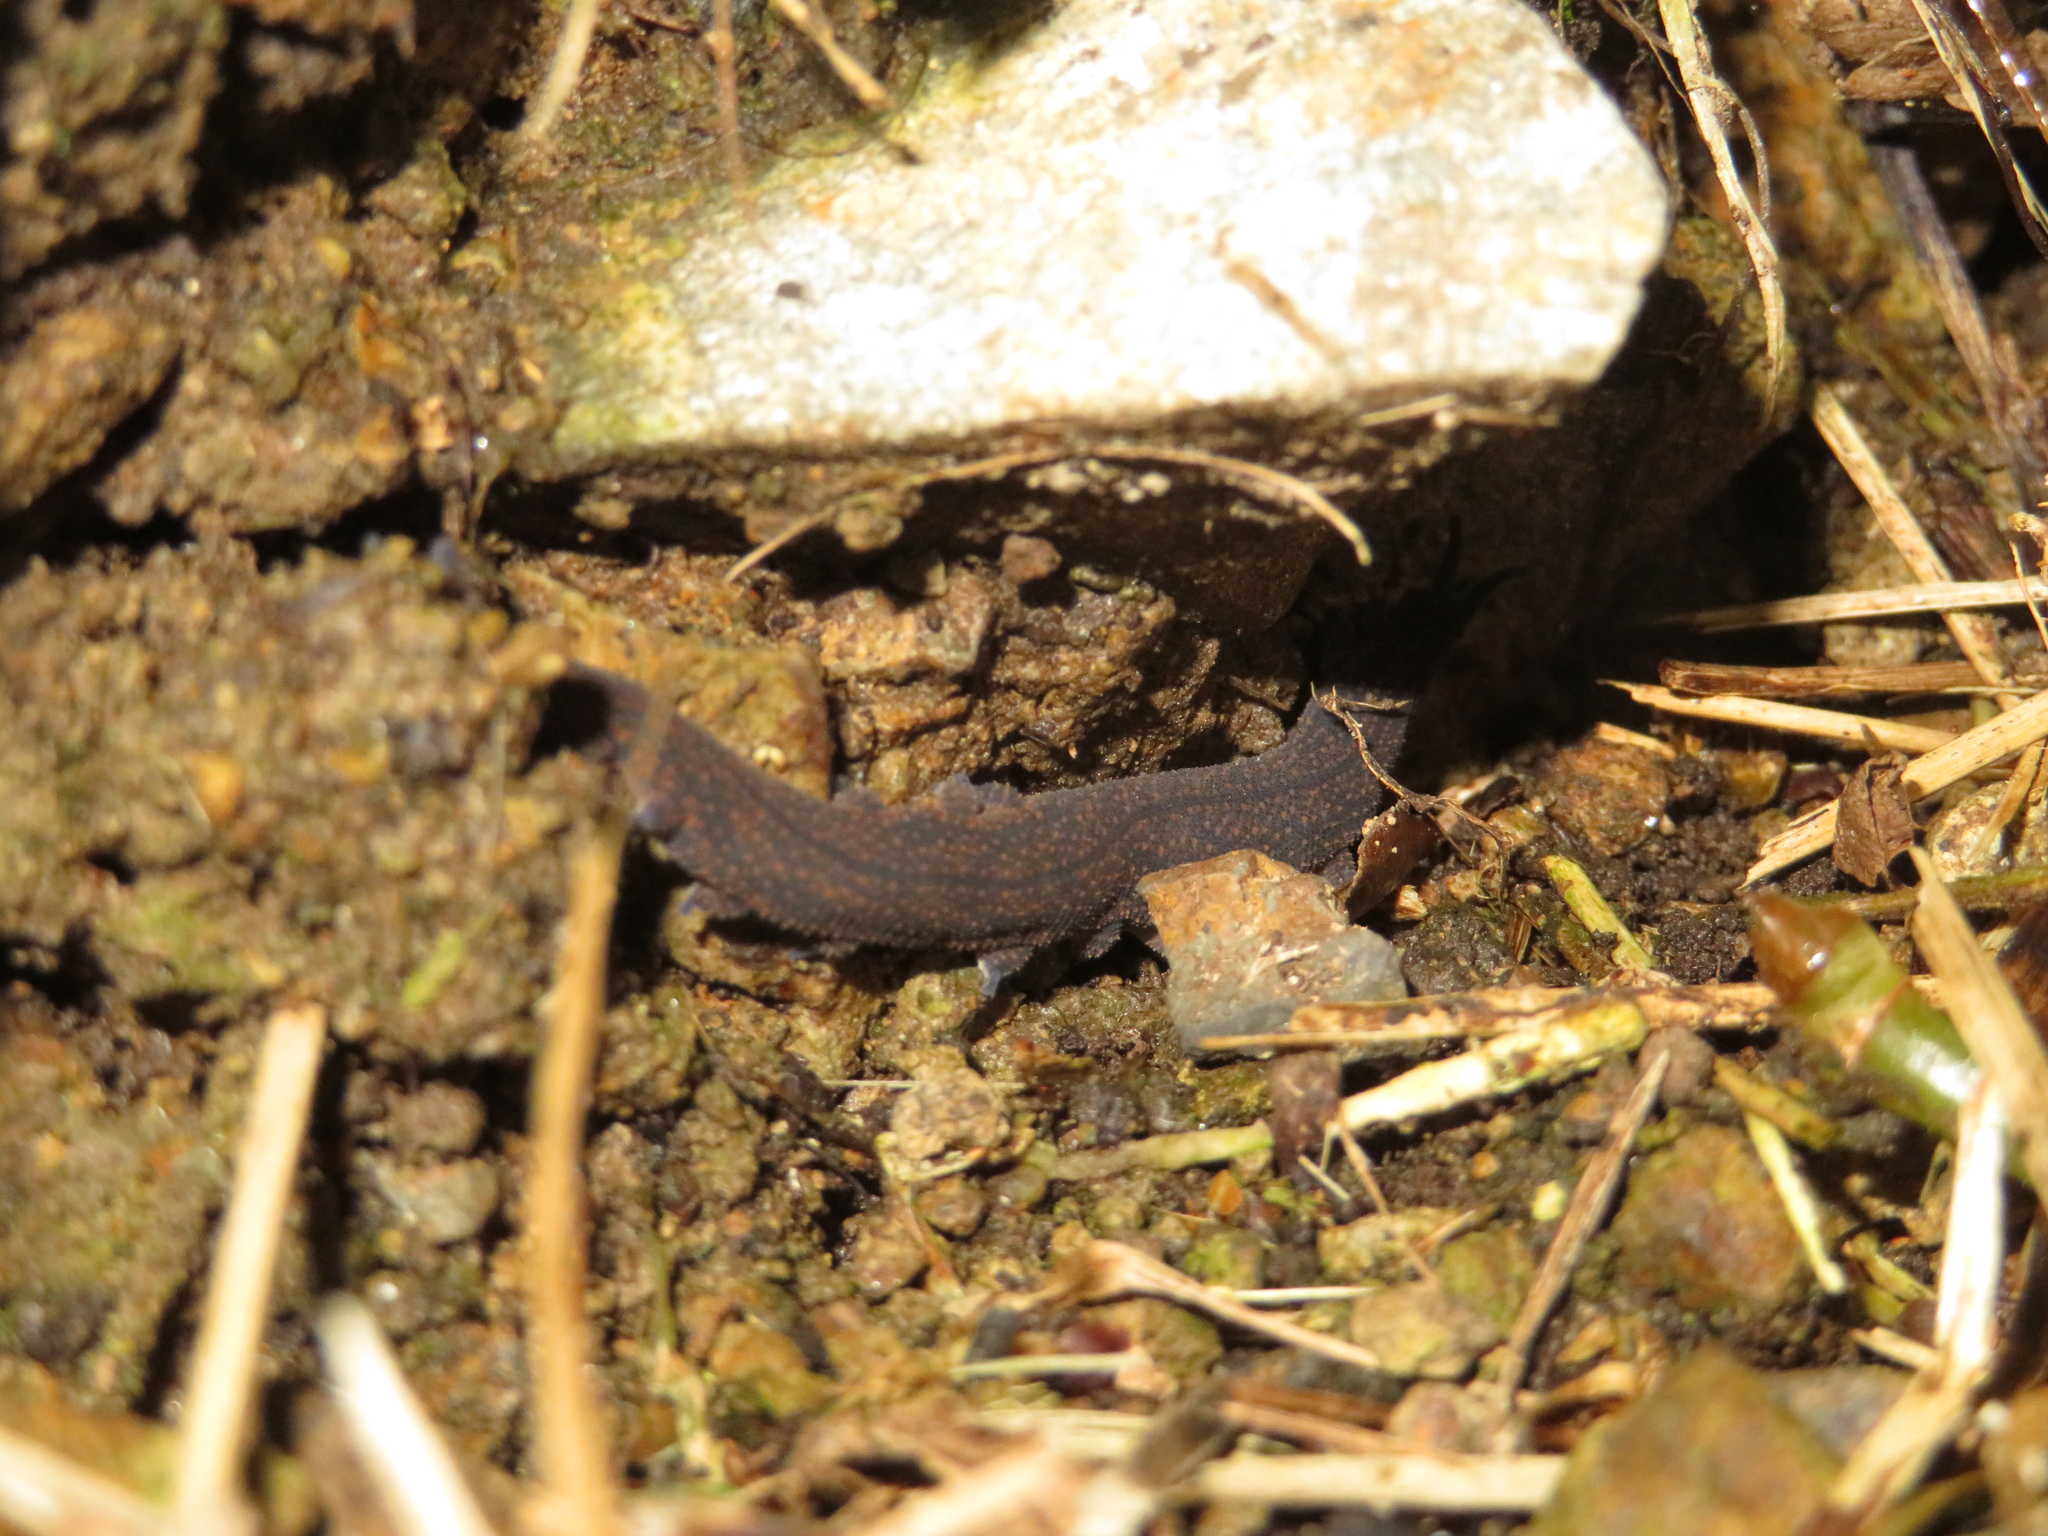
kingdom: Animalia
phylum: Onychophora
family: Peripatopsidae
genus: Peripatoides
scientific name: Peripatoides novaezealandiae
